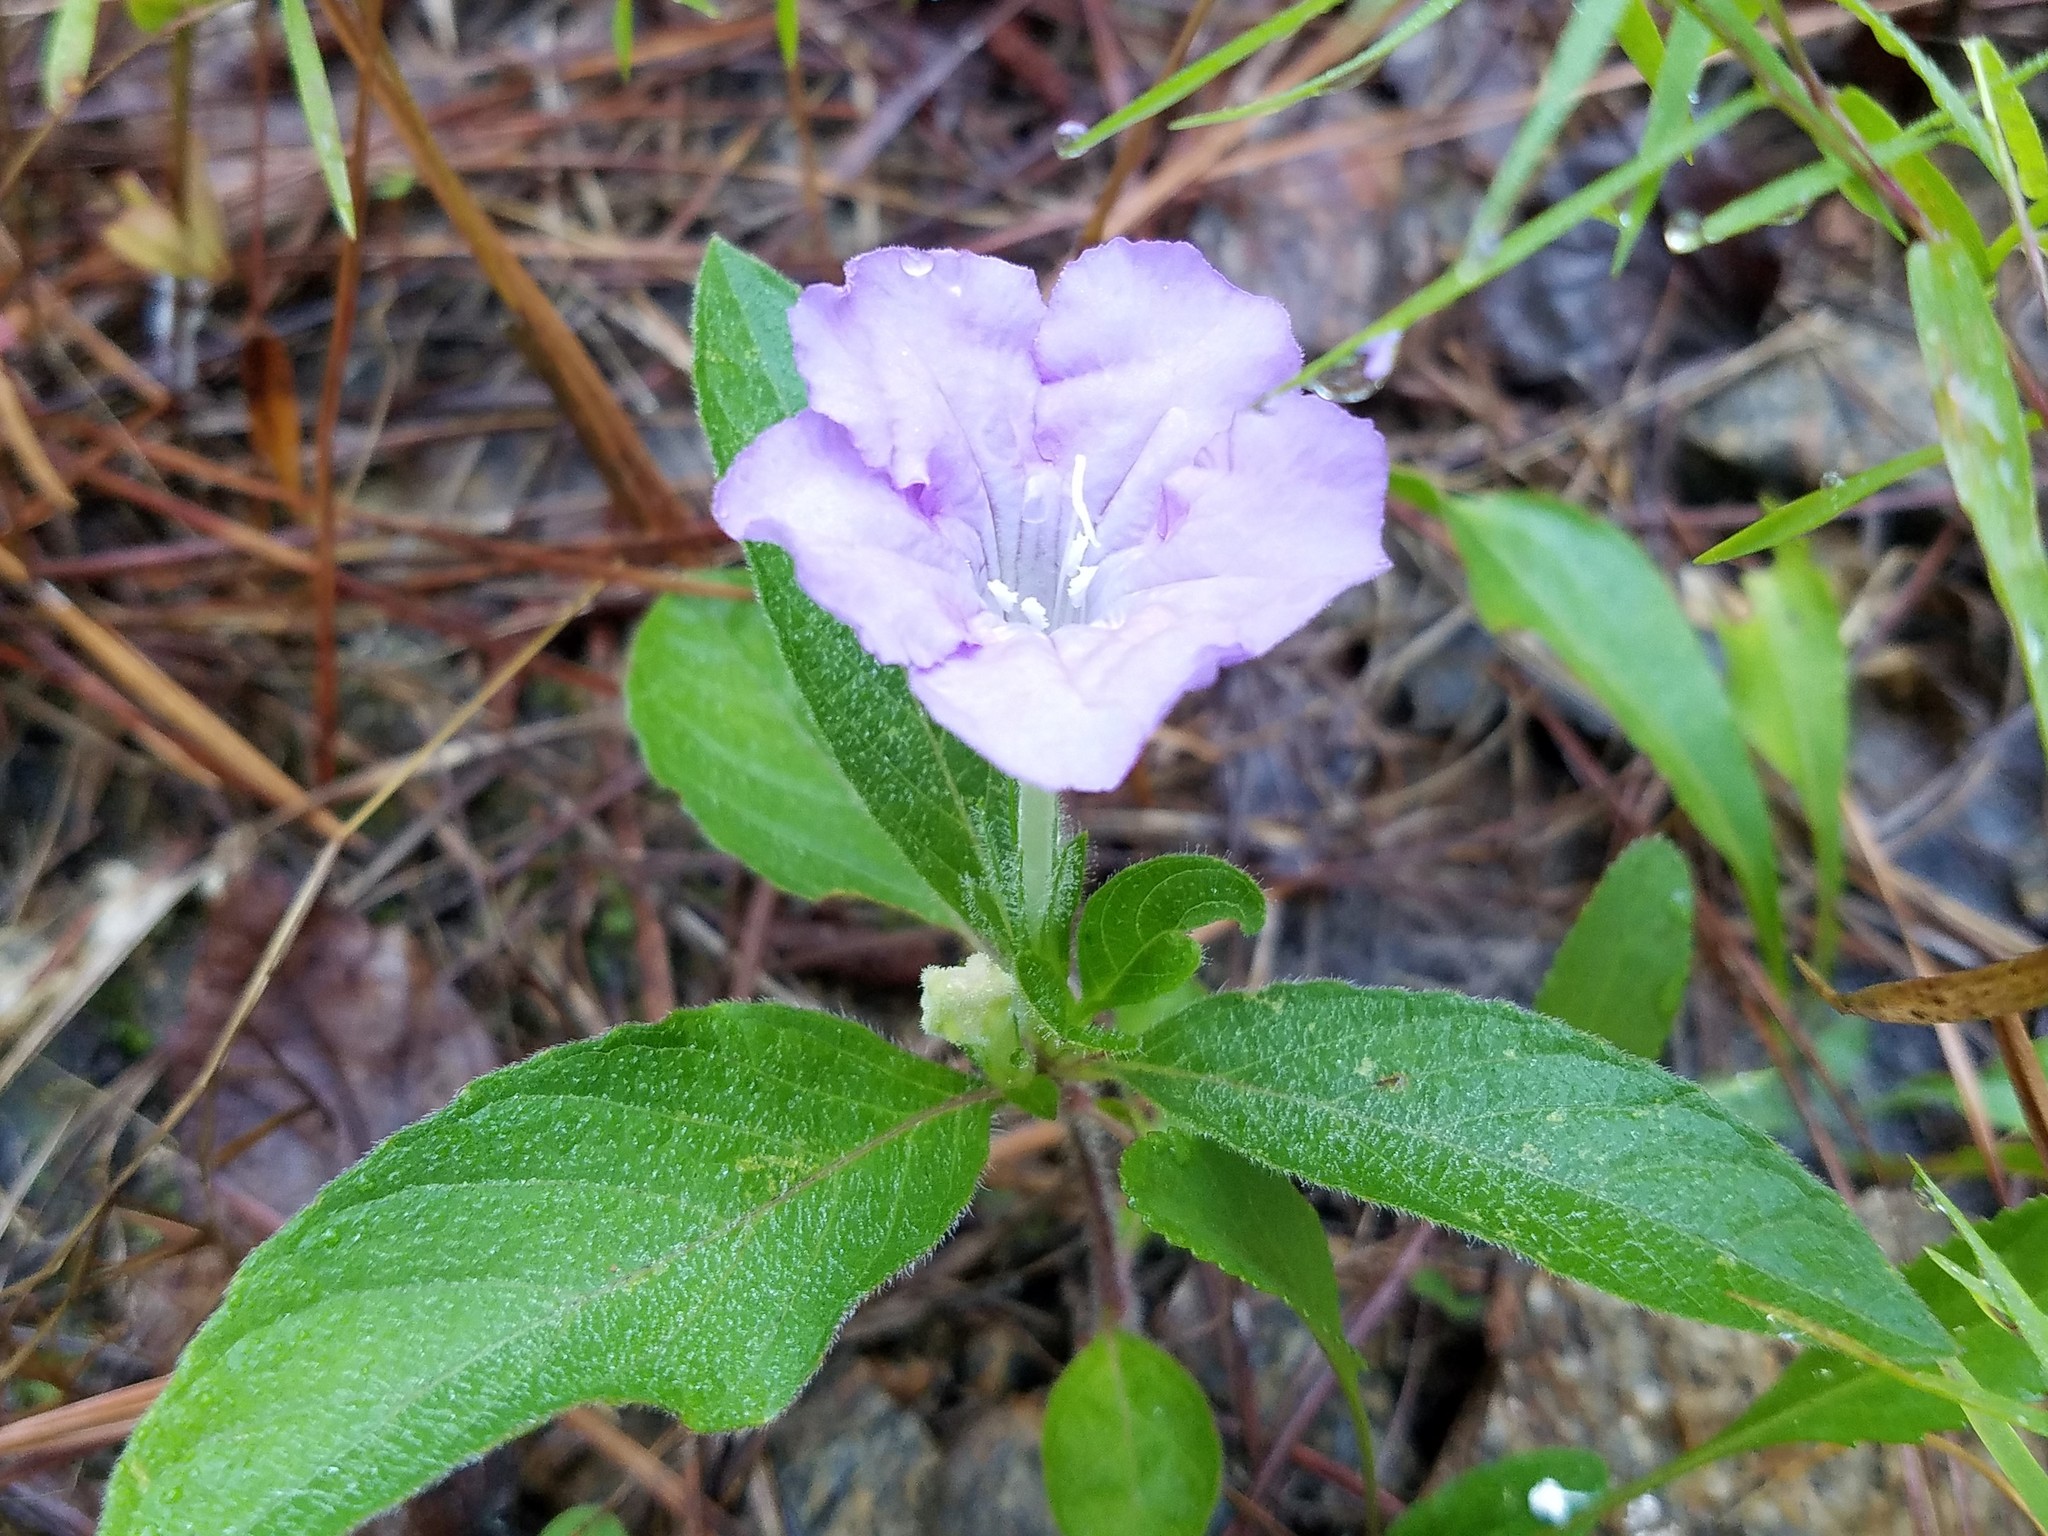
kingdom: Plantae
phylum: Tracheophyta
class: Magnoliopsida
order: Lamiales
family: Acanthaceae
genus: Ruellia
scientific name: Ruellia caroliniensis
